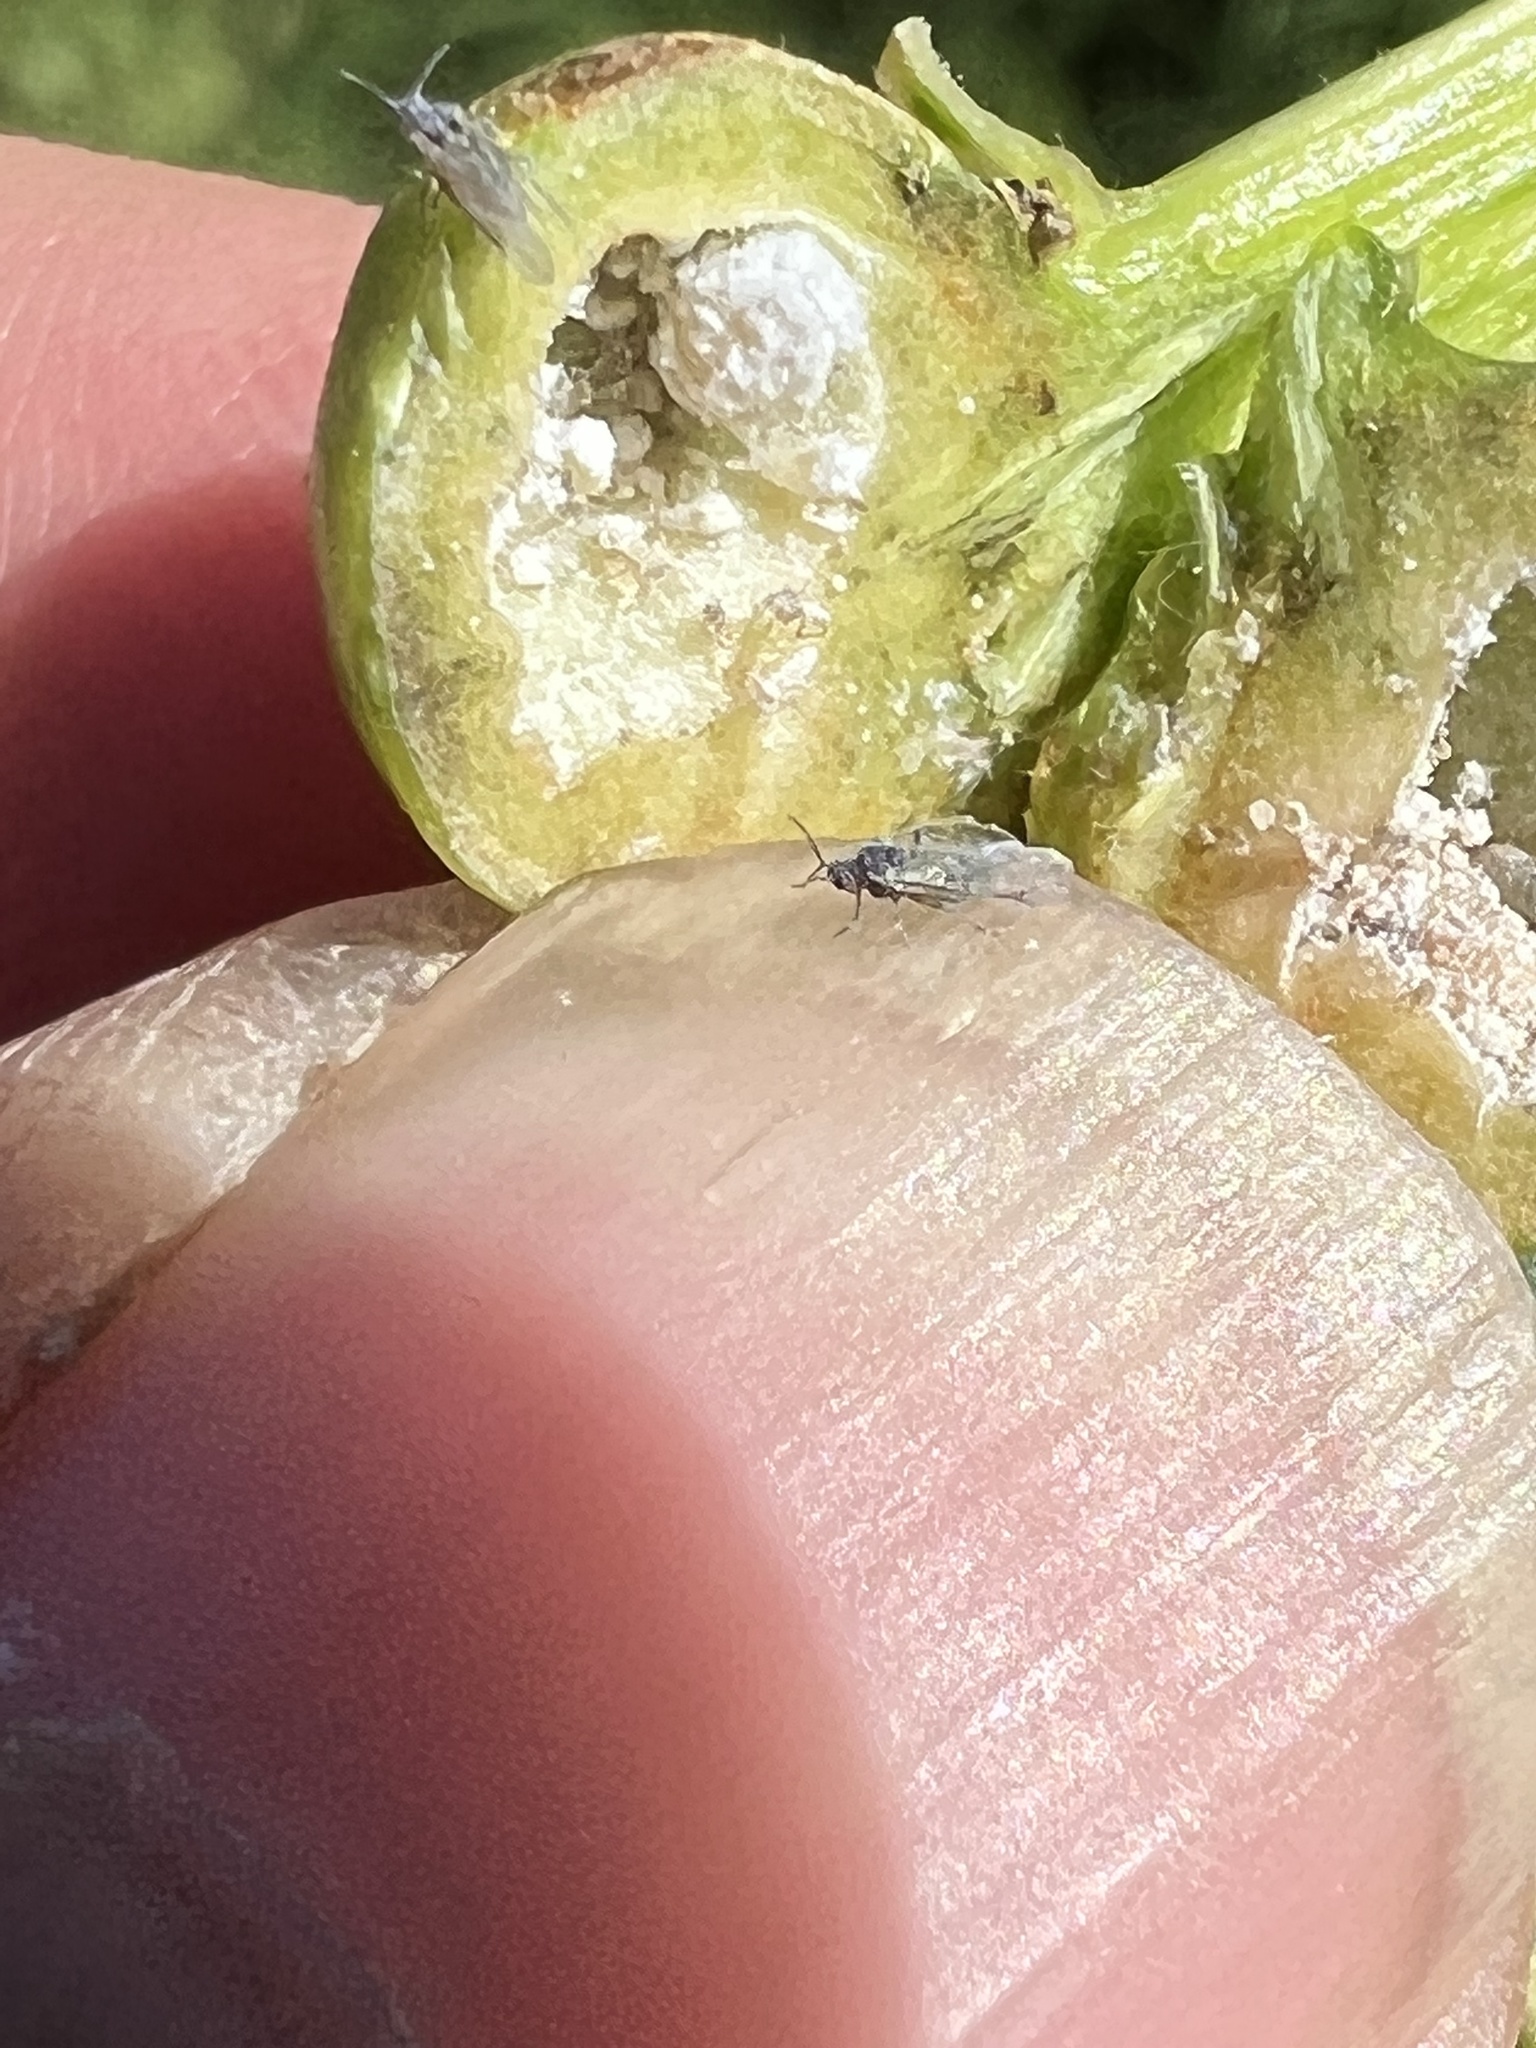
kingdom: Animalia
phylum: Arthropoda
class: Insecta
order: Hemiptera
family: Aphididae
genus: Pemphigus
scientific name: Pemphigus populitransversus
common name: Poplar petiolegall aphid
